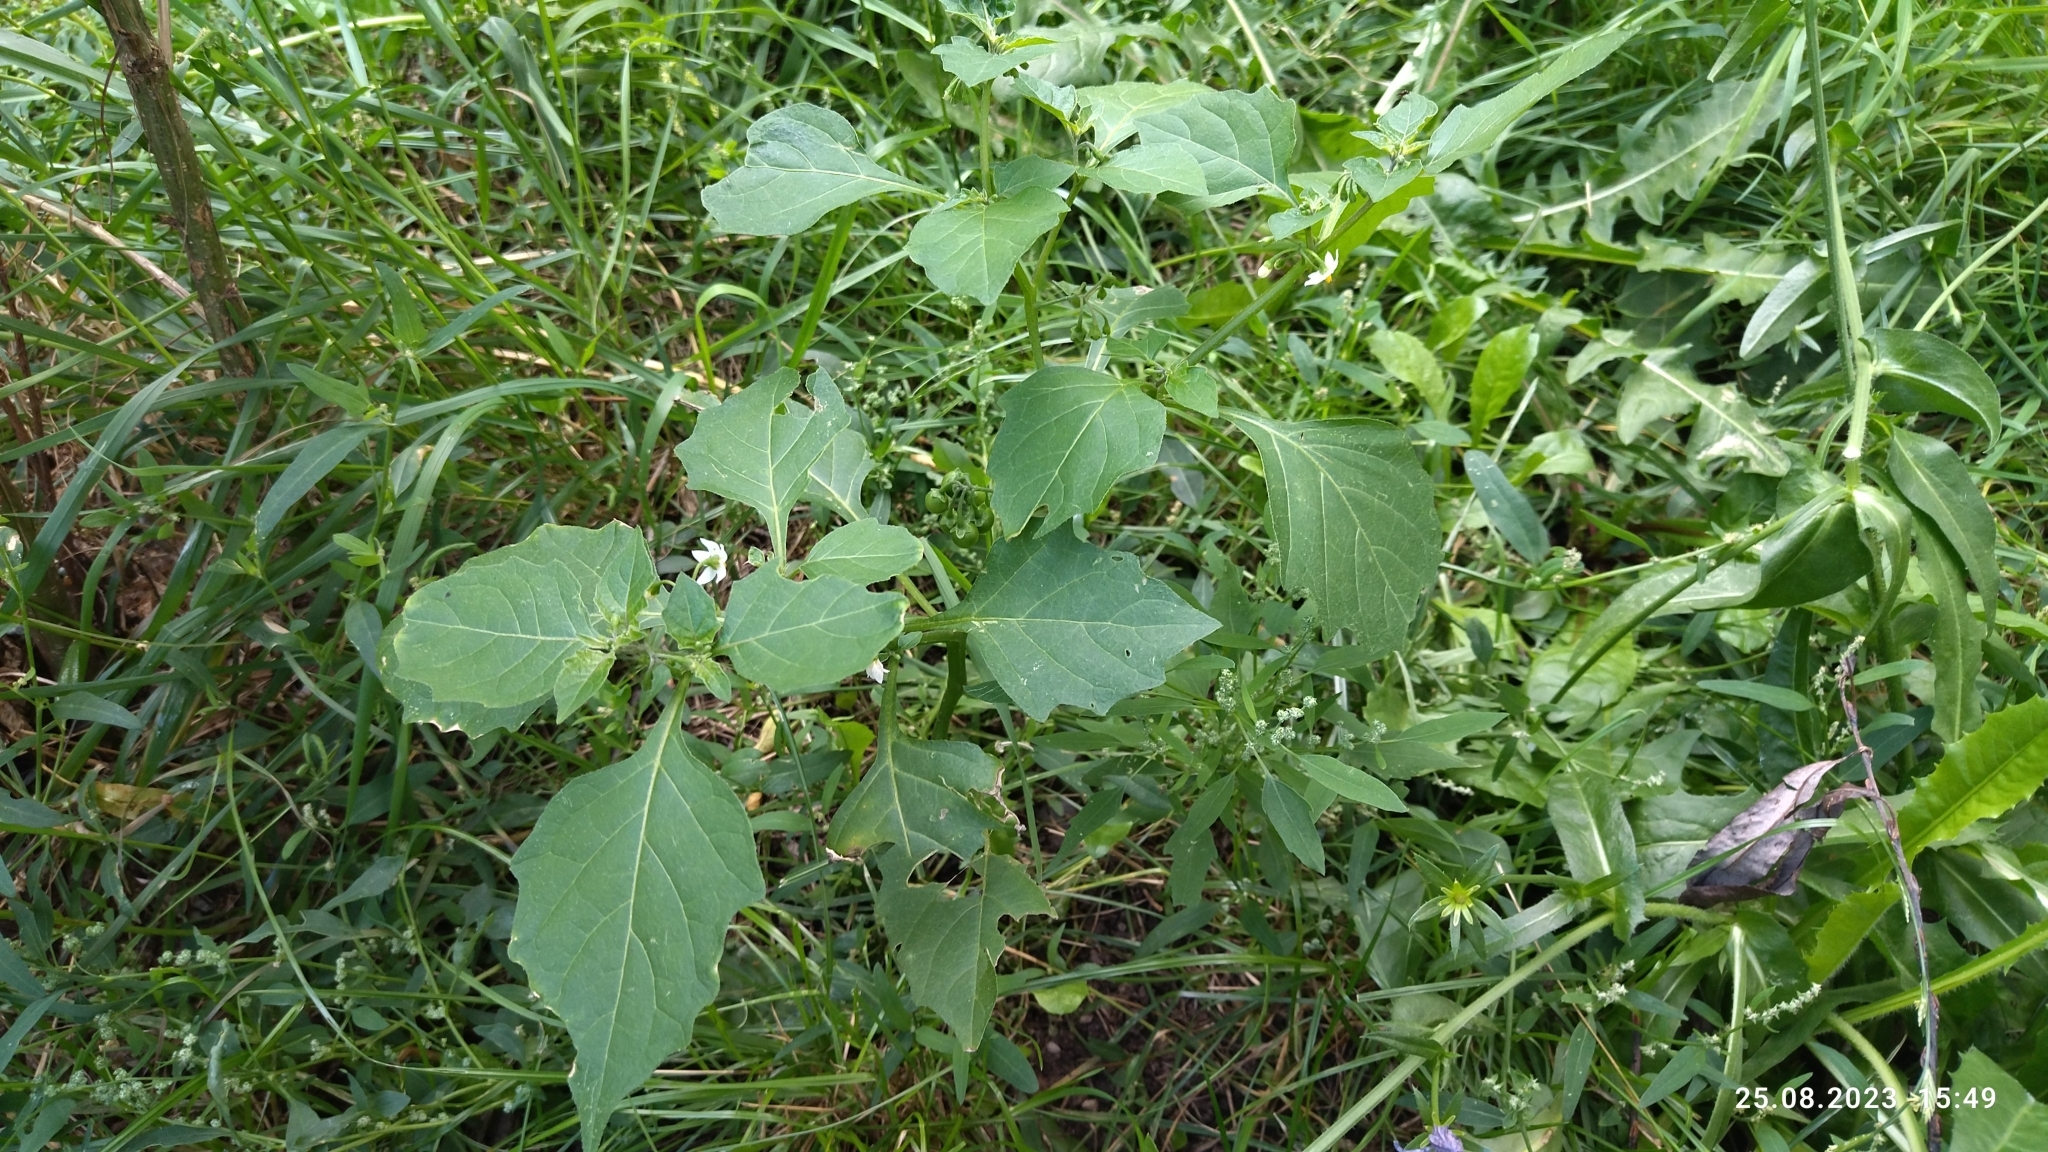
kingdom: Plantae
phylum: Tracheophyta
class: Magnoliopsida
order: Solanales
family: Solanaceae
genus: Solanum
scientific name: Solanum nigrum
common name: Black nightshade
